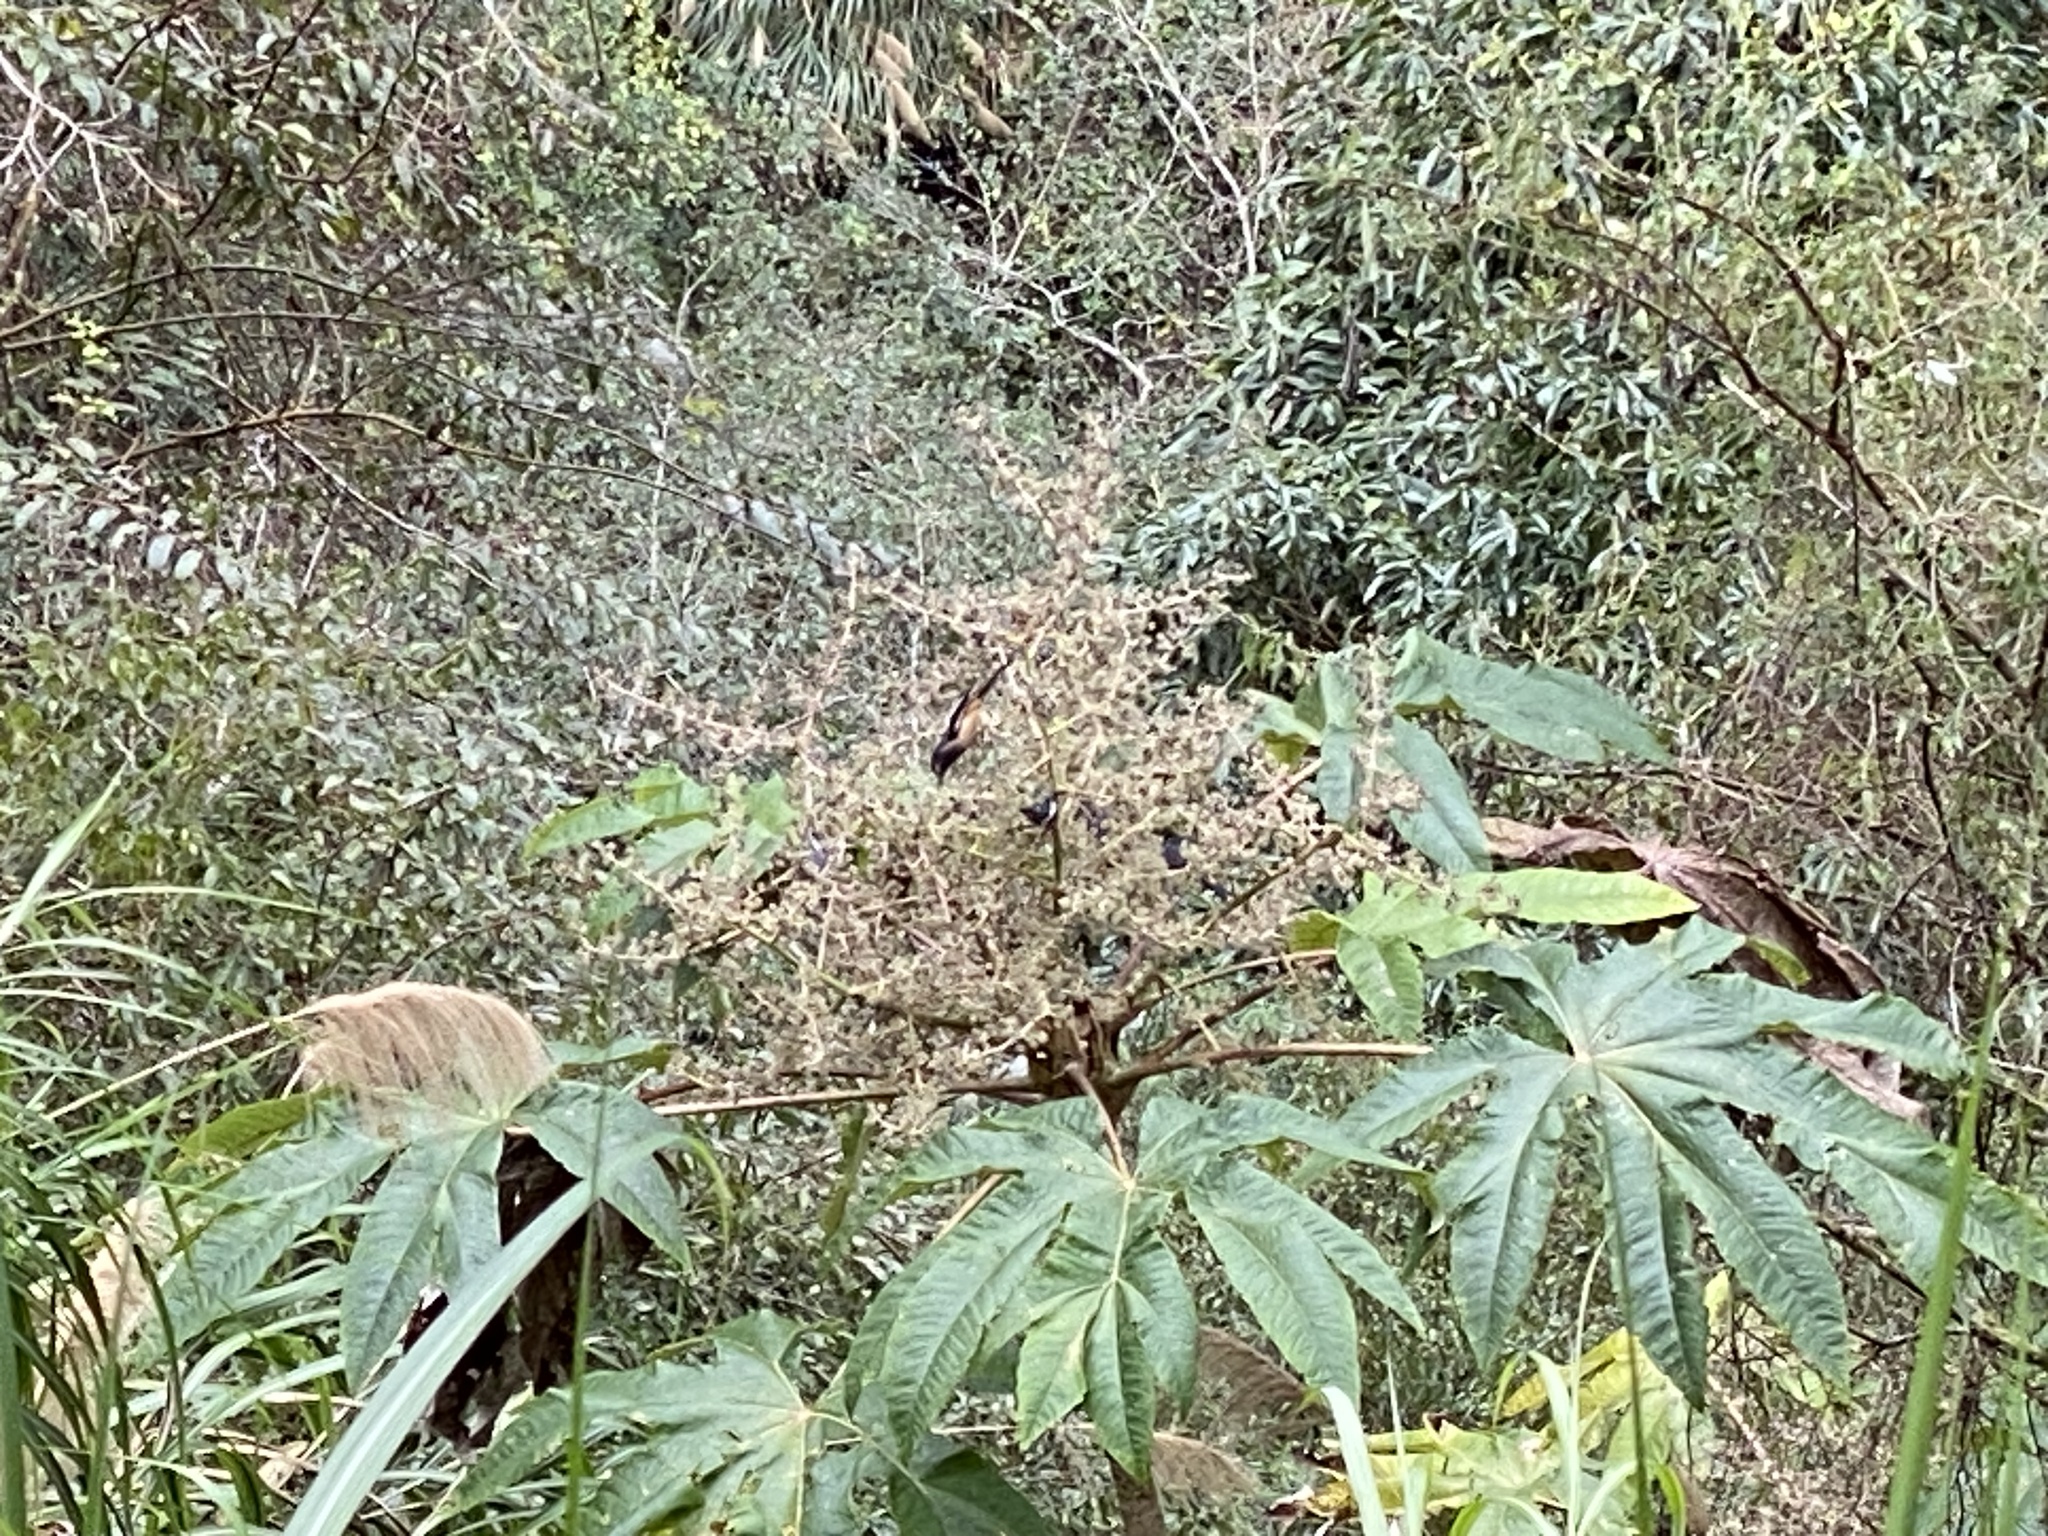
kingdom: Animalia
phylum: Chordata
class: Aves
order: Passeriformes
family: Leiothrichidae
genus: Heterophasia
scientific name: Heterophasia auricularis
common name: White-eared sibia
